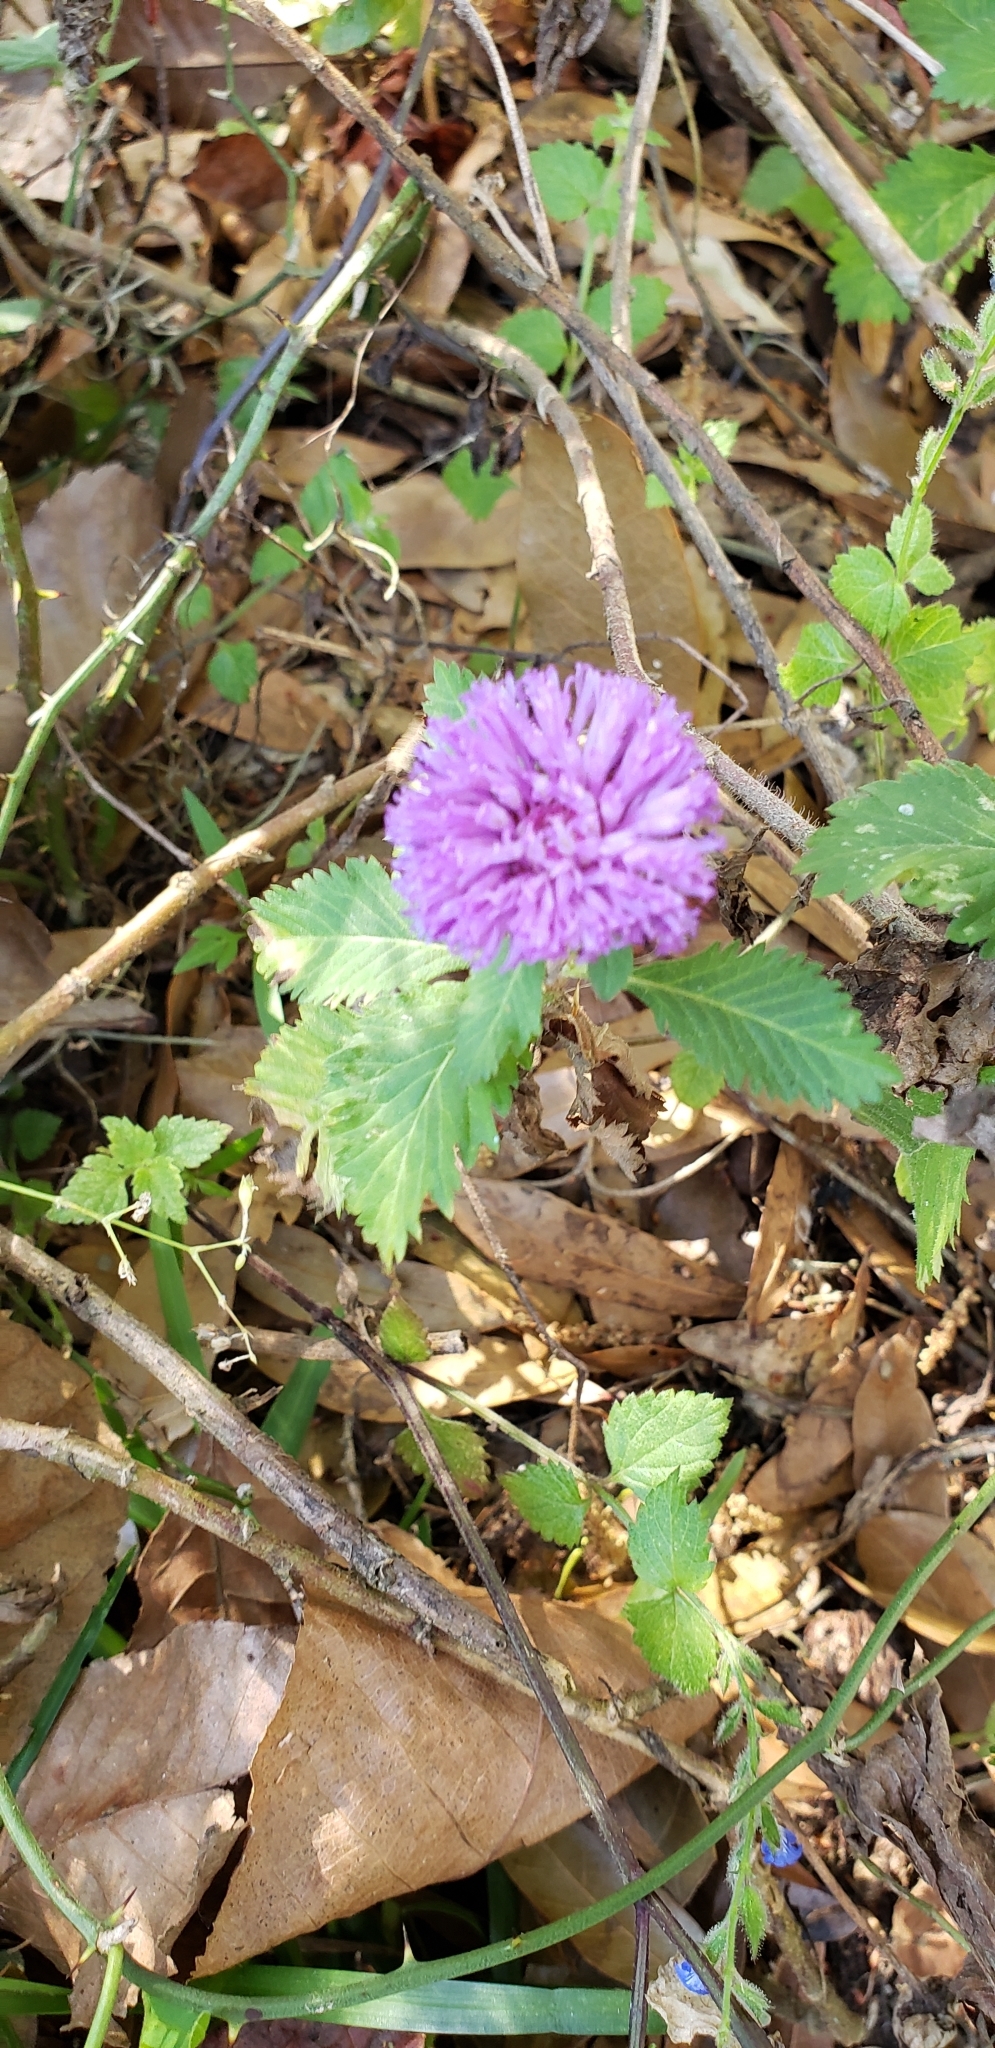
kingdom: Plantae
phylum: Tracheophyta
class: Magnoliopsida
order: Asterales
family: Asteraceae
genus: Centratherum
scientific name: Centratherum punctatum
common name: Larkdaisy
